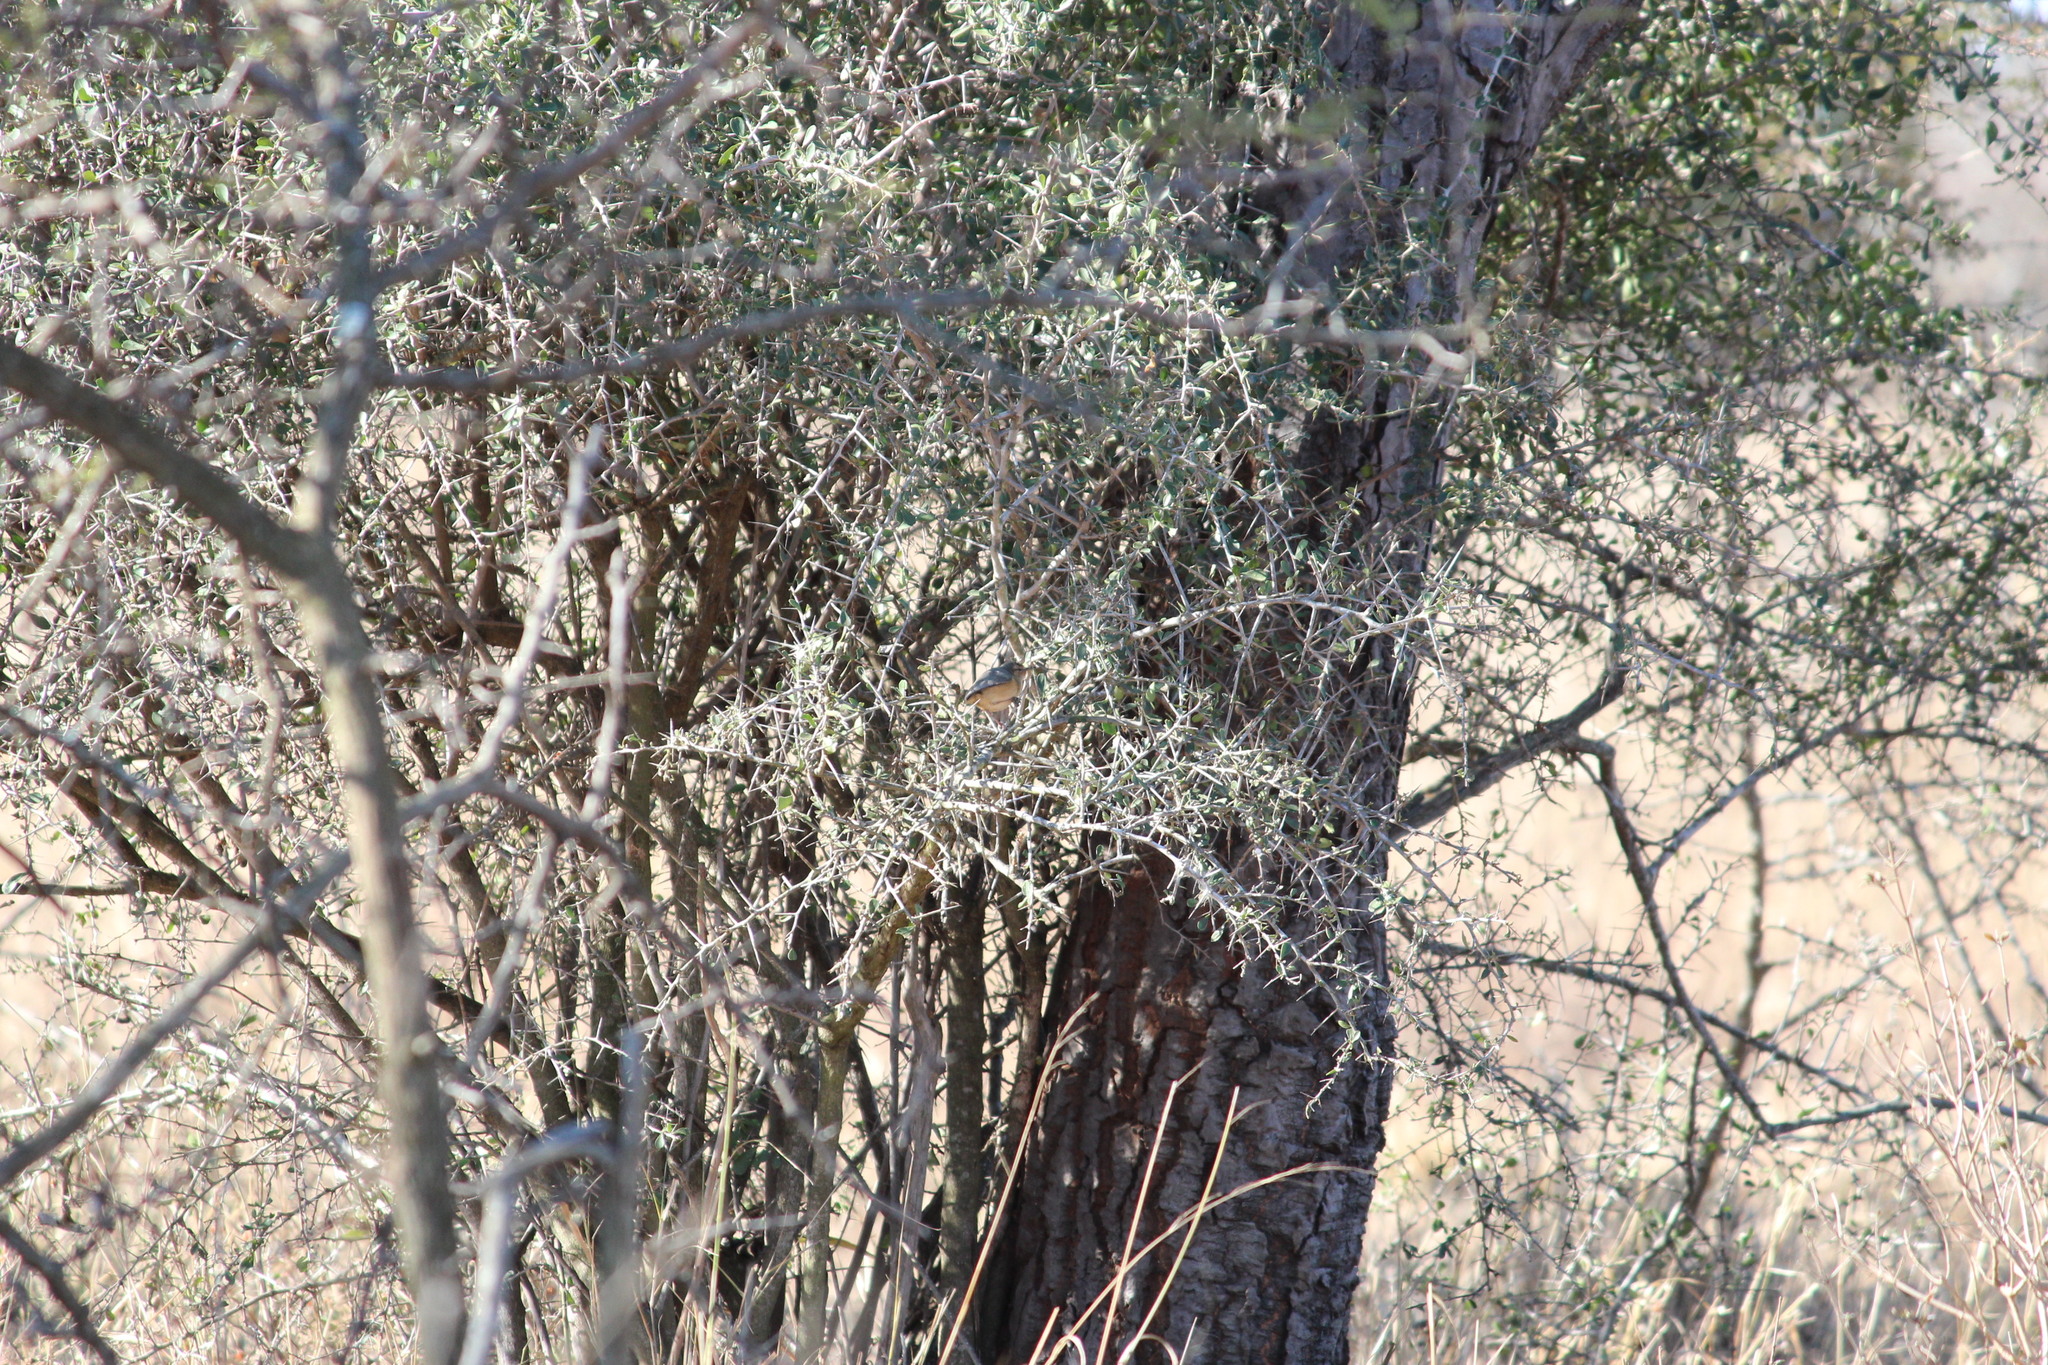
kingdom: Animalia
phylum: Chordata
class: Aves
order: Passeriformes
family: Macrosphenidae
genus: Sylvietta
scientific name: Sylvietta rufescens
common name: Long-billed crombec
